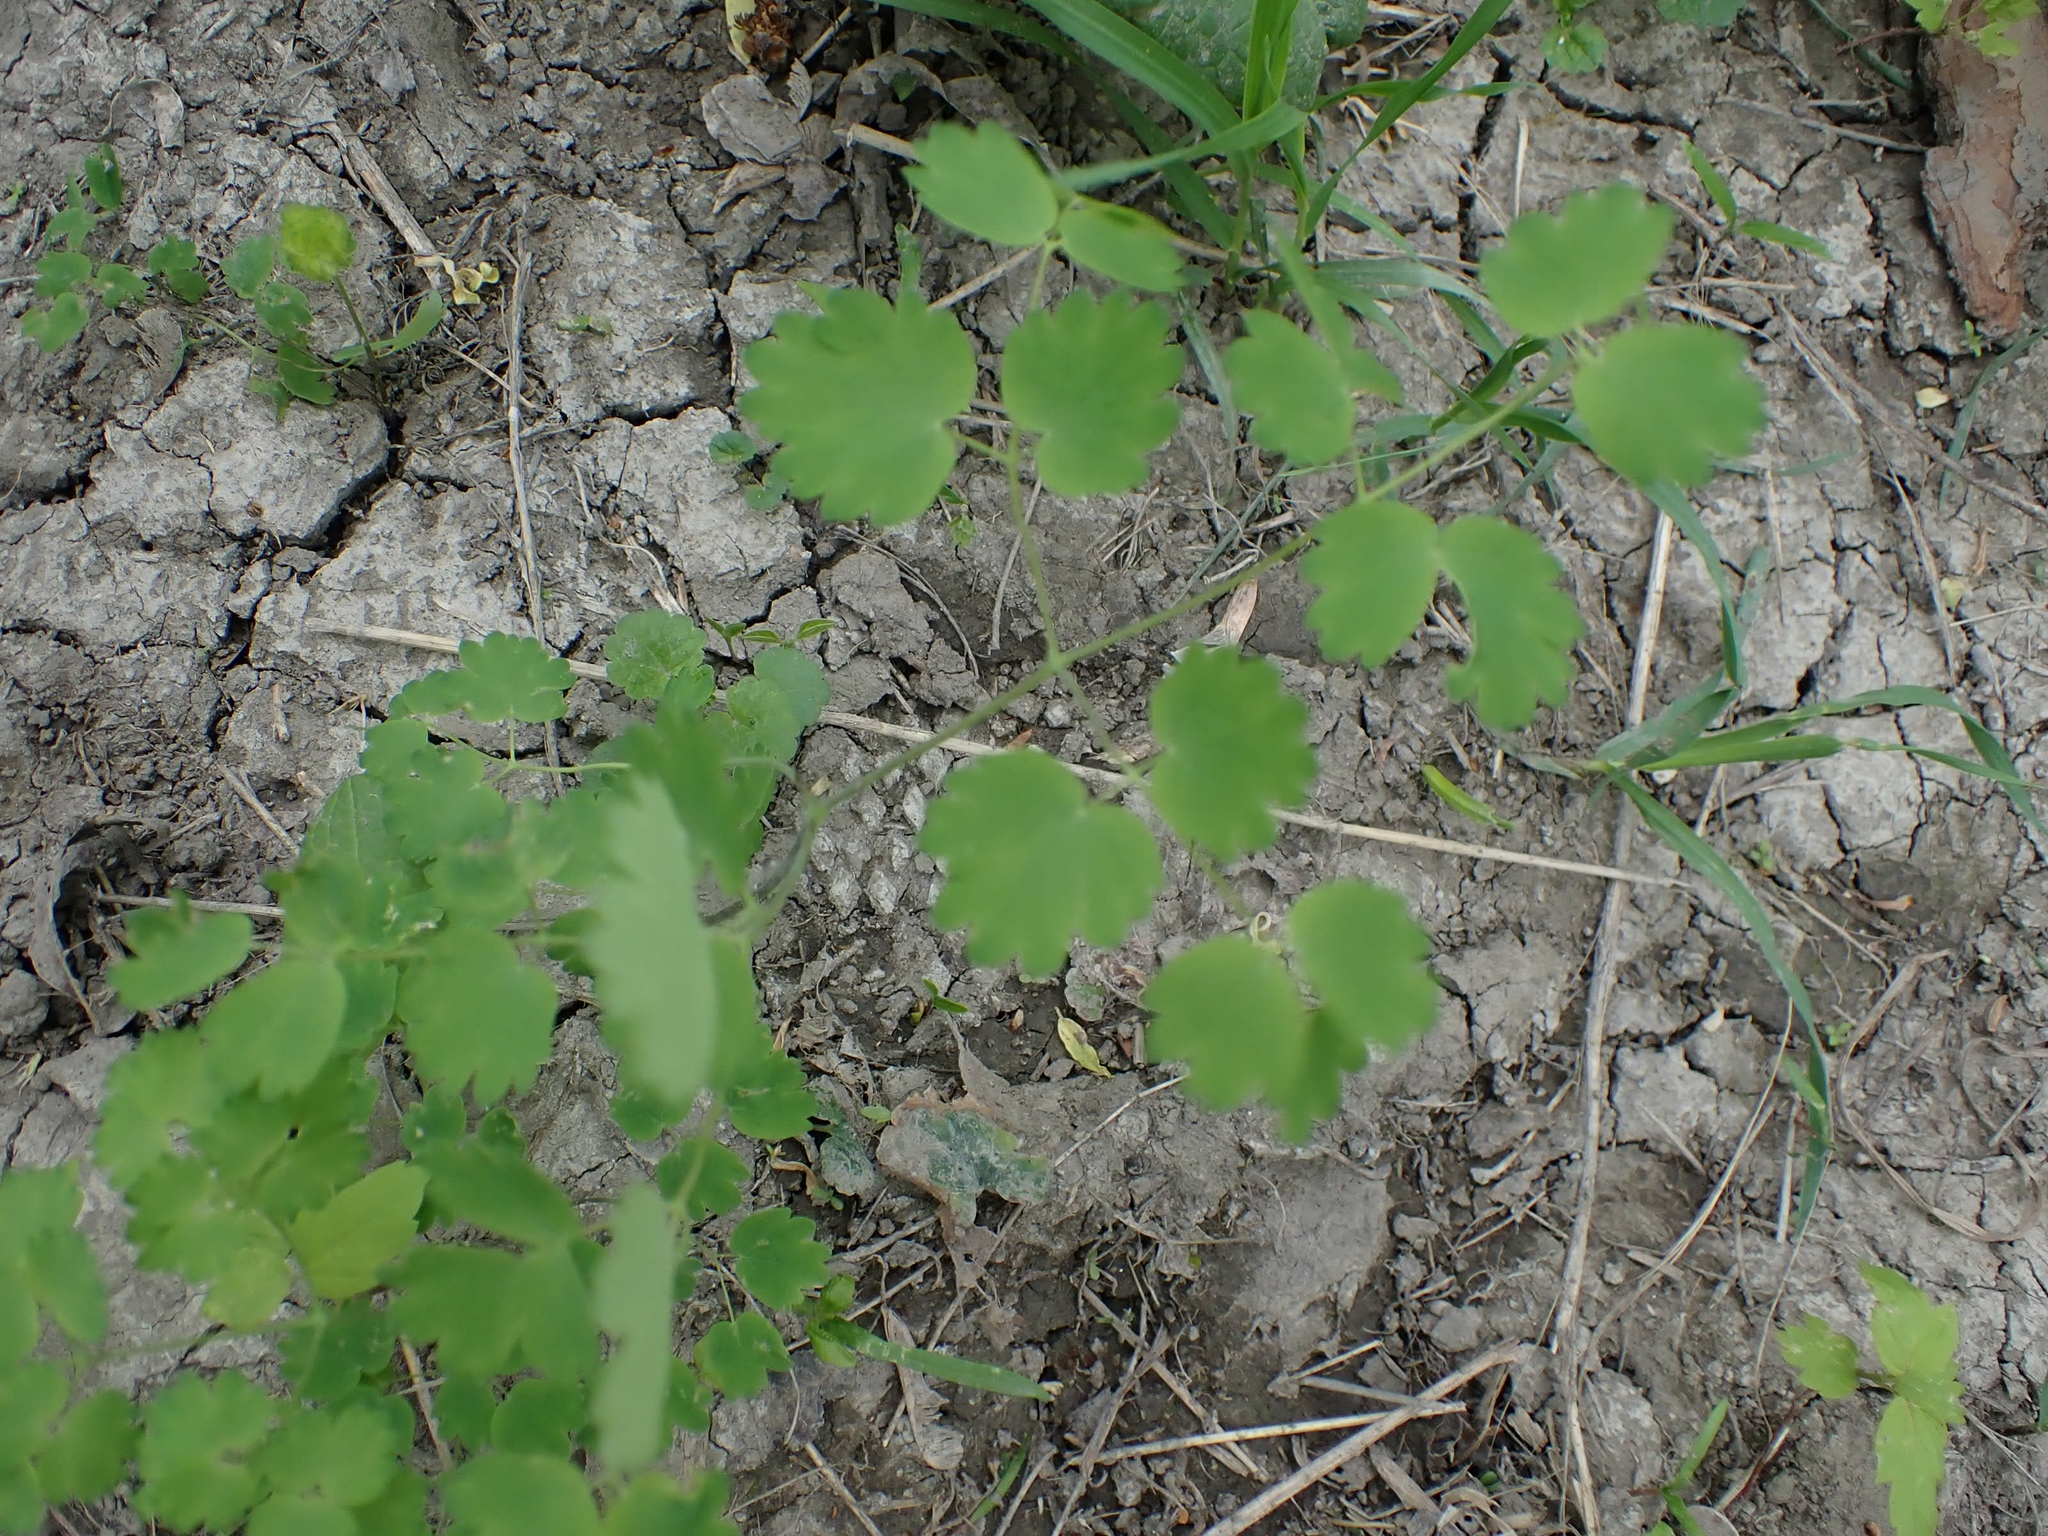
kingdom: Plantae
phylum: Tracheophyta
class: Magnoliopsida
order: Ranunculales
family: Ranunculaceae
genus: Thalictrum
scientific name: Thalictrum venulosum
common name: Early meadow-rue
